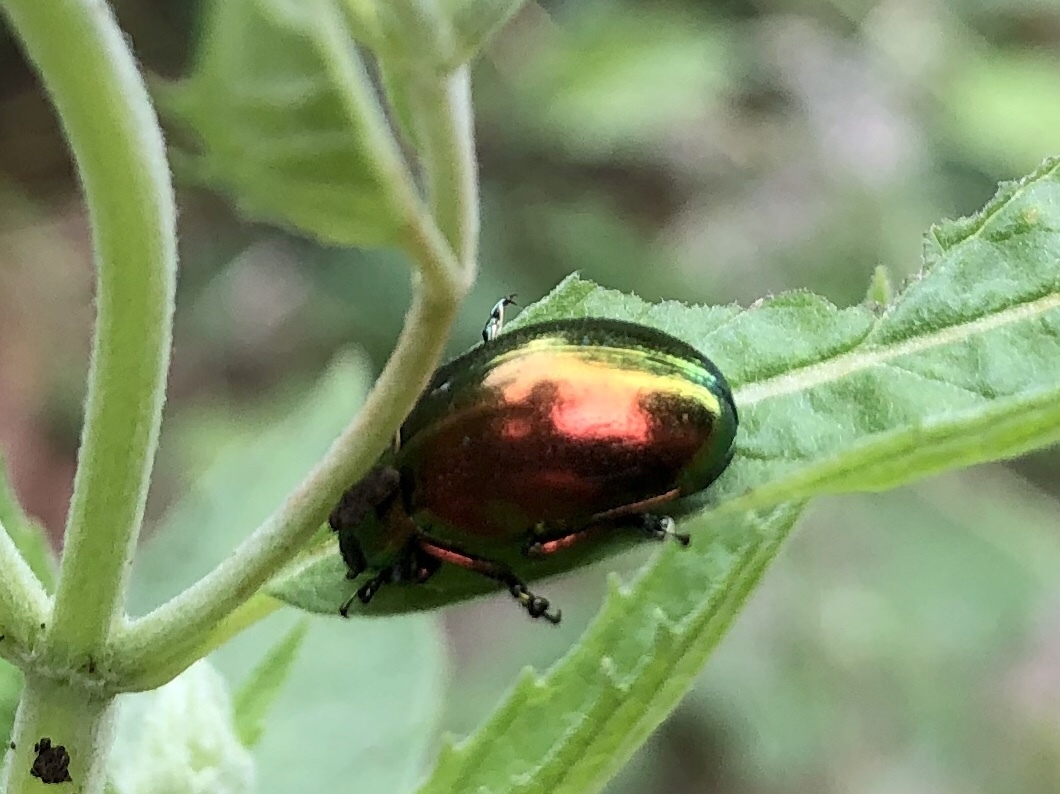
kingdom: Animalia
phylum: Arthropoda
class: Insecta
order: Coleoptera
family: Chrysomelidae
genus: Chrysolina
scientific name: Chrysolina herbacea
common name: Mint leaf beatle
